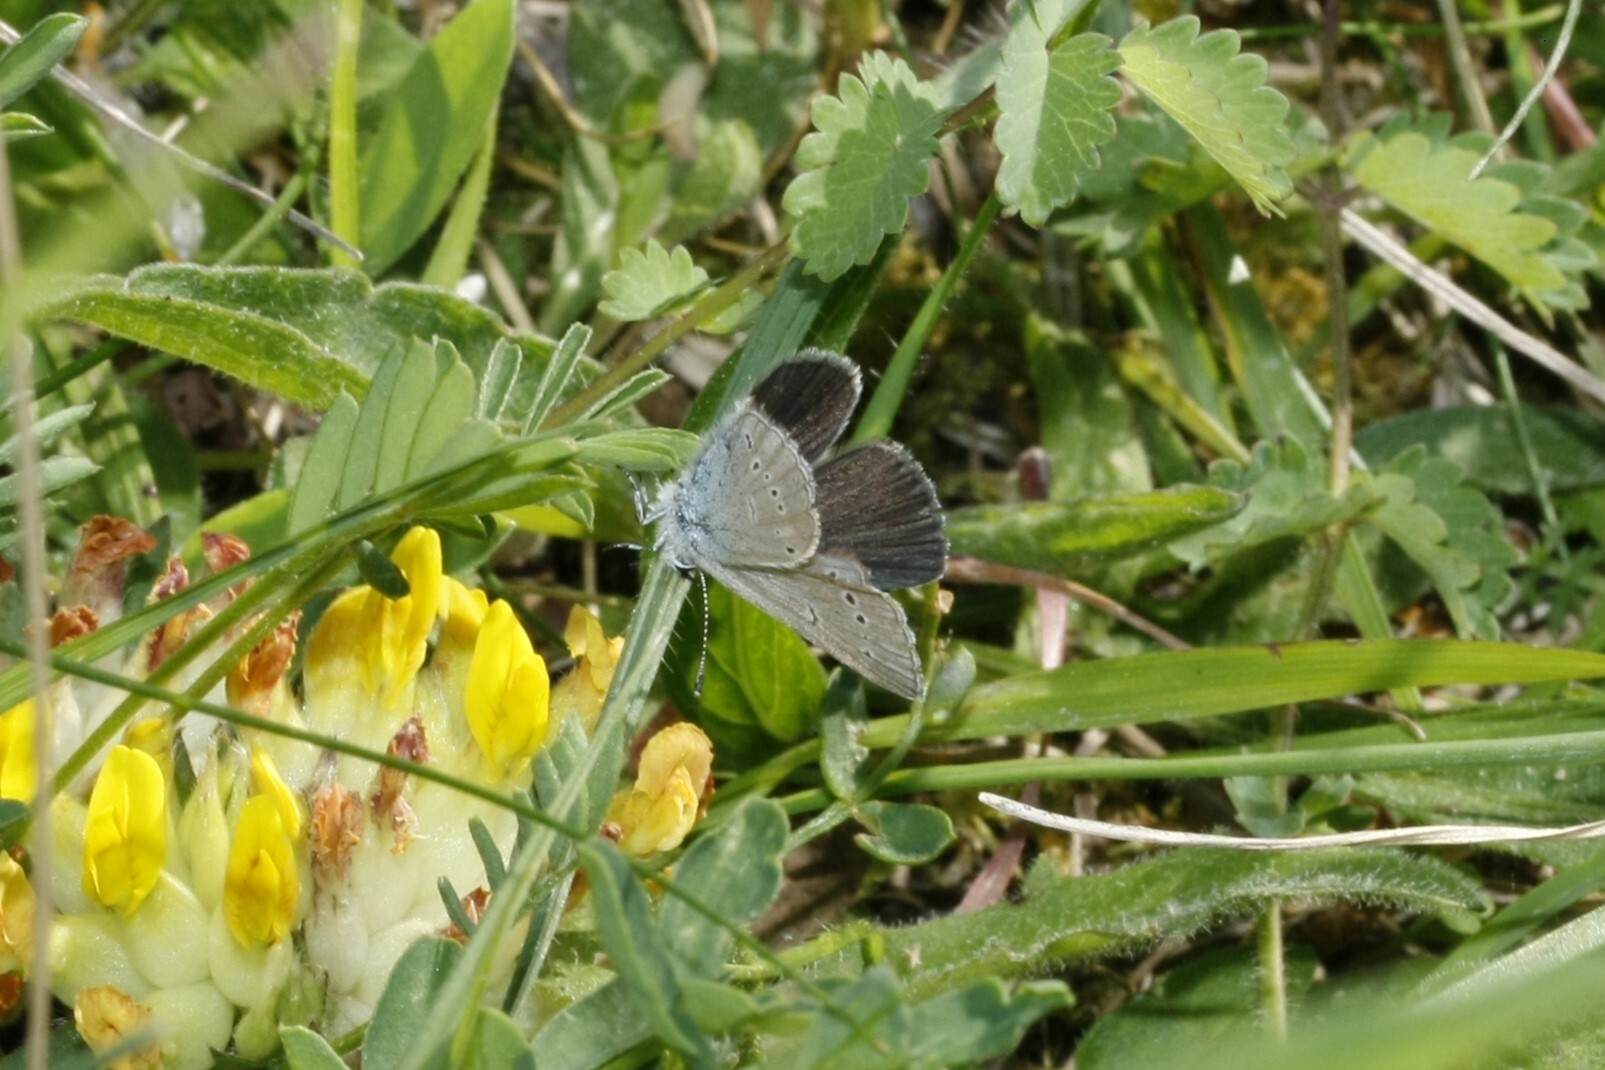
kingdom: Animalia
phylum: Arthropoda
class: Insecta
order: Lepidoptera
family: Lycaenidae
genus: Cupido
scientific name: Cupido minimus
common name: Small blue
